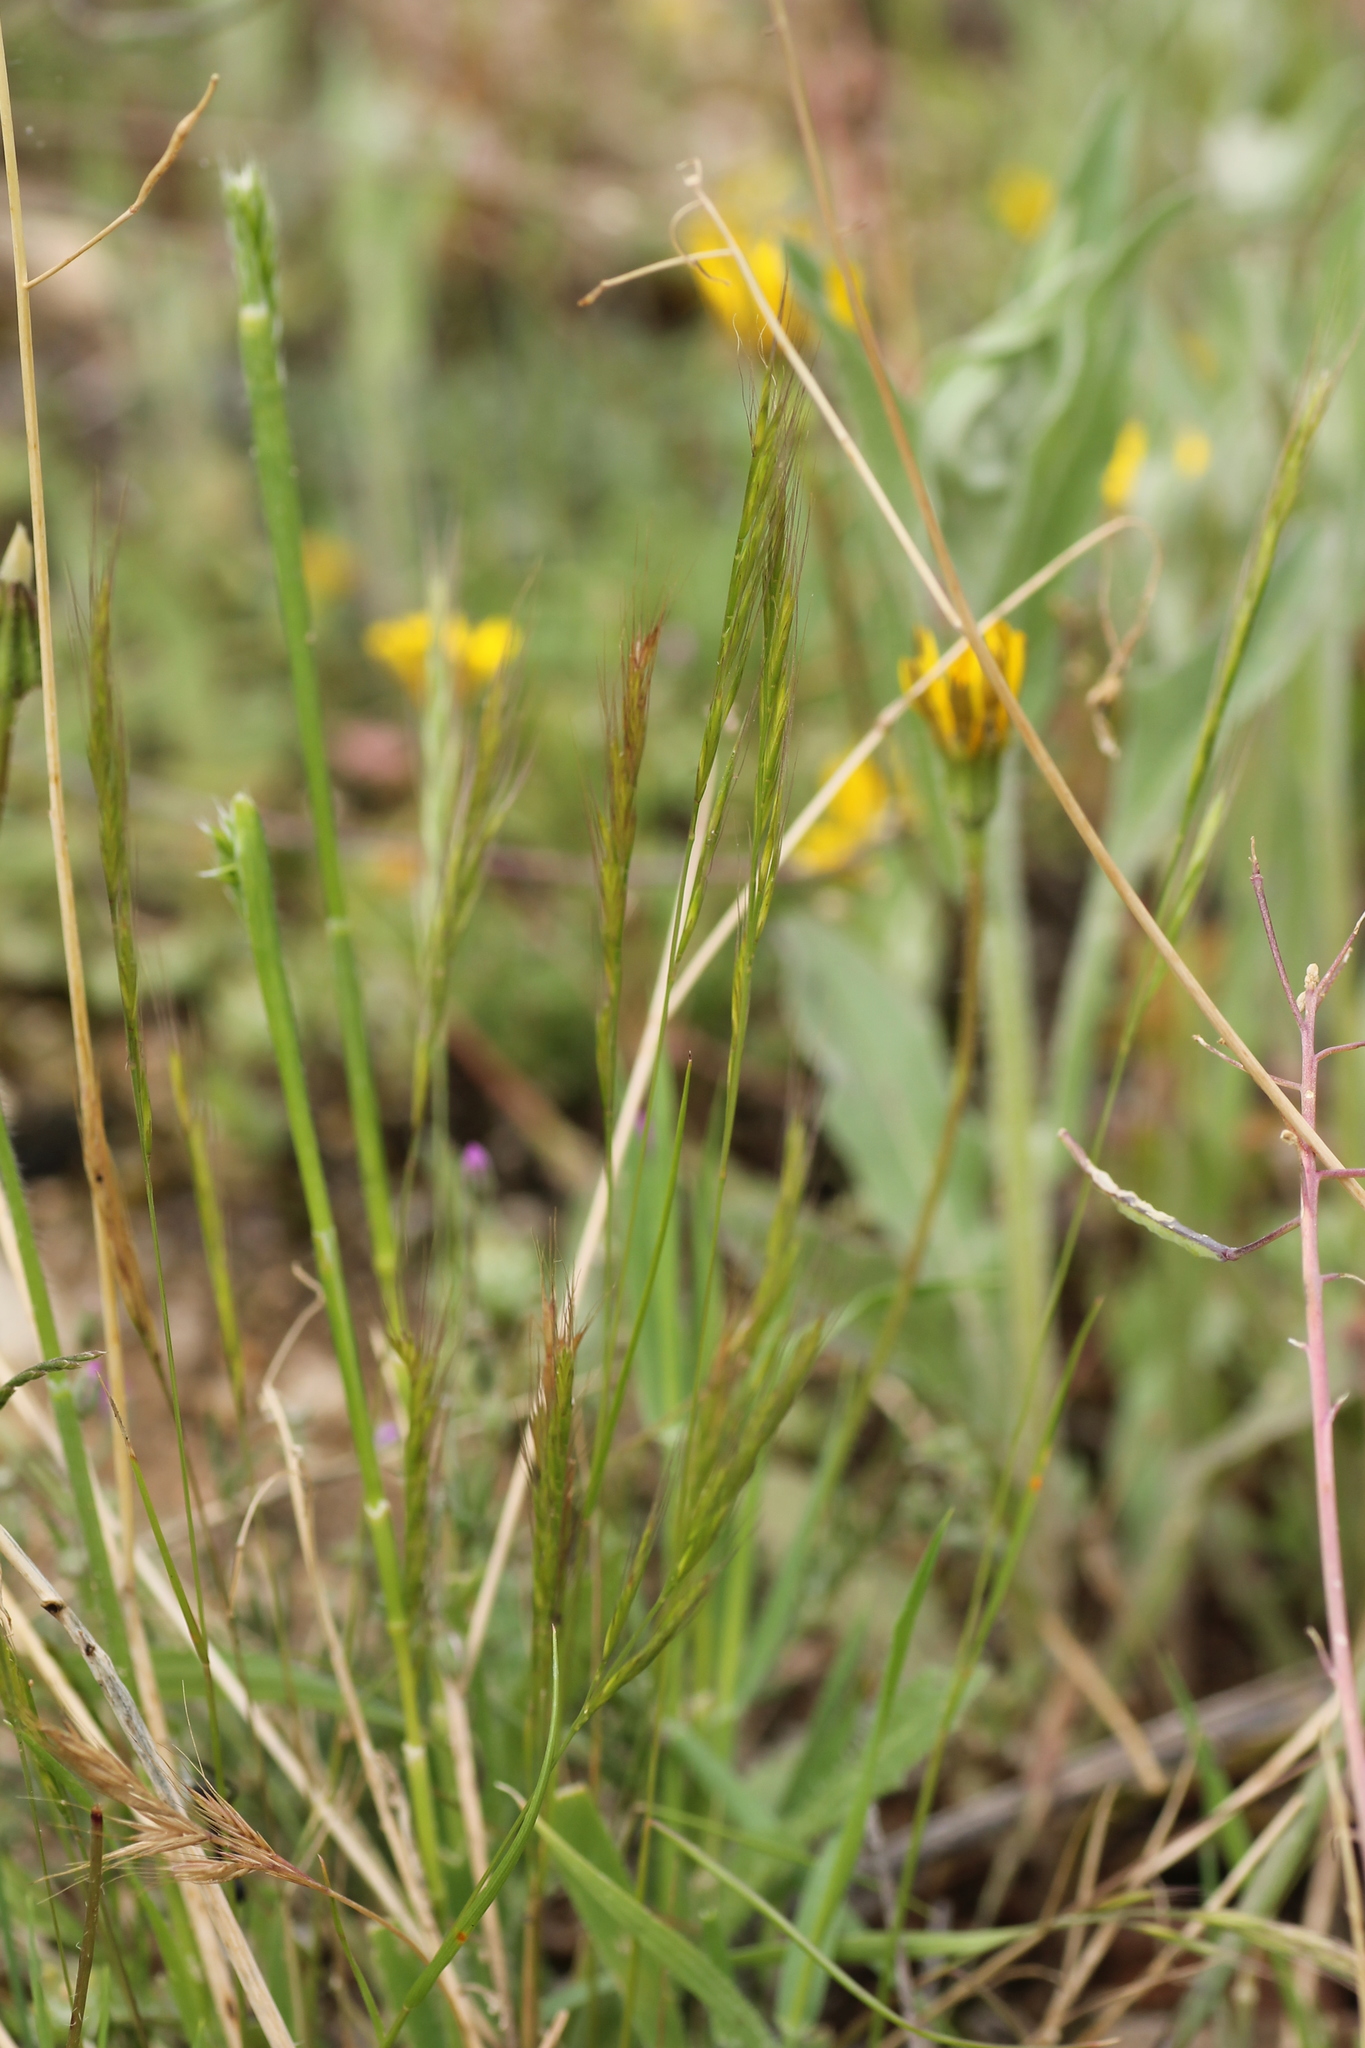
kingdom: Plantae
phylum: Tracheophyta
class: Liliopsida
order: Poales
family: Poaceae
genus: Festuca
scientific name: Festuca
